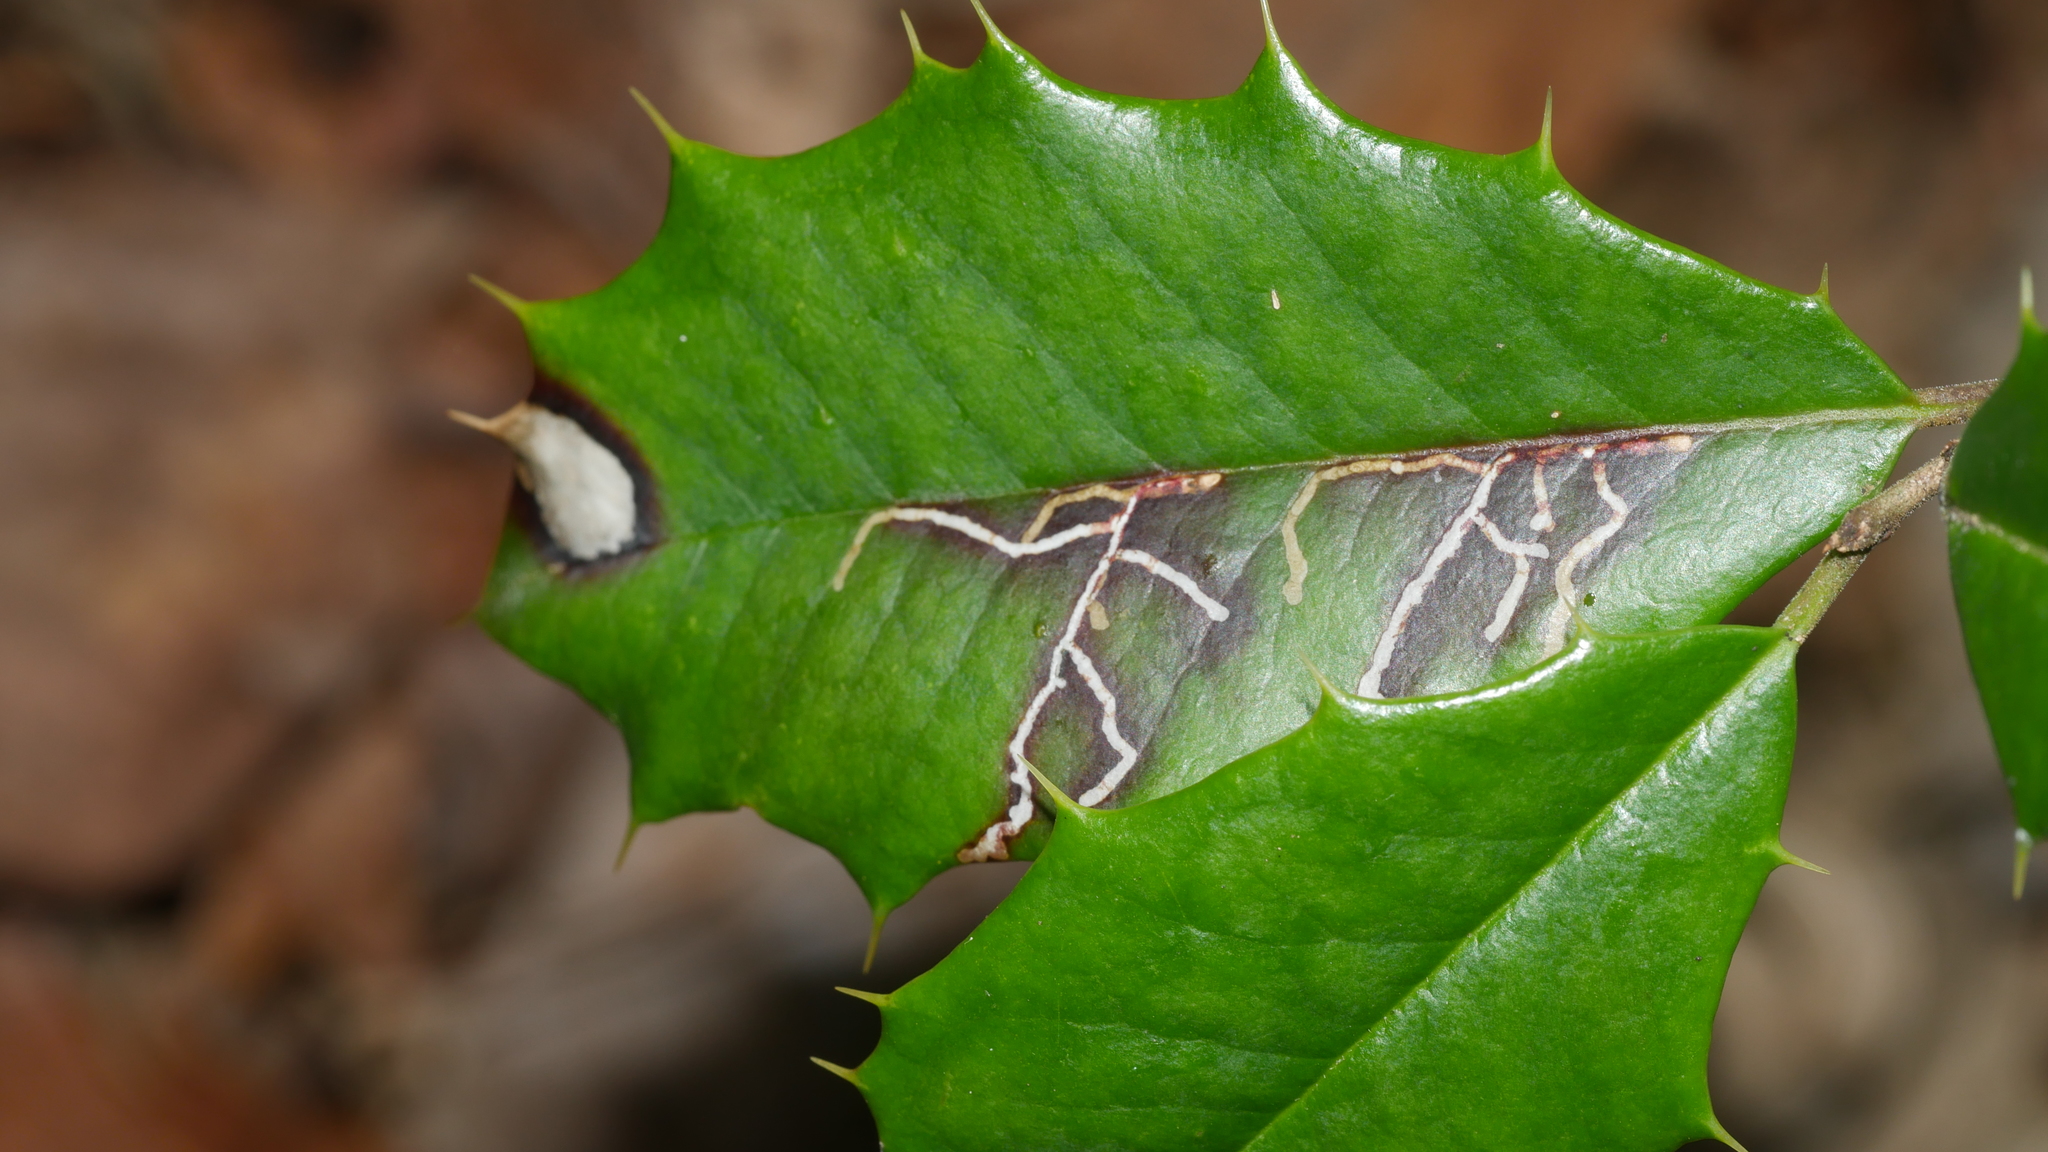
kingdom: Animalia
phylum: Arthropoda
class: Insecta
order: Lepidoptera
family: Tortricidae
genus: Rhopobota
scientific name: Rhopobota
